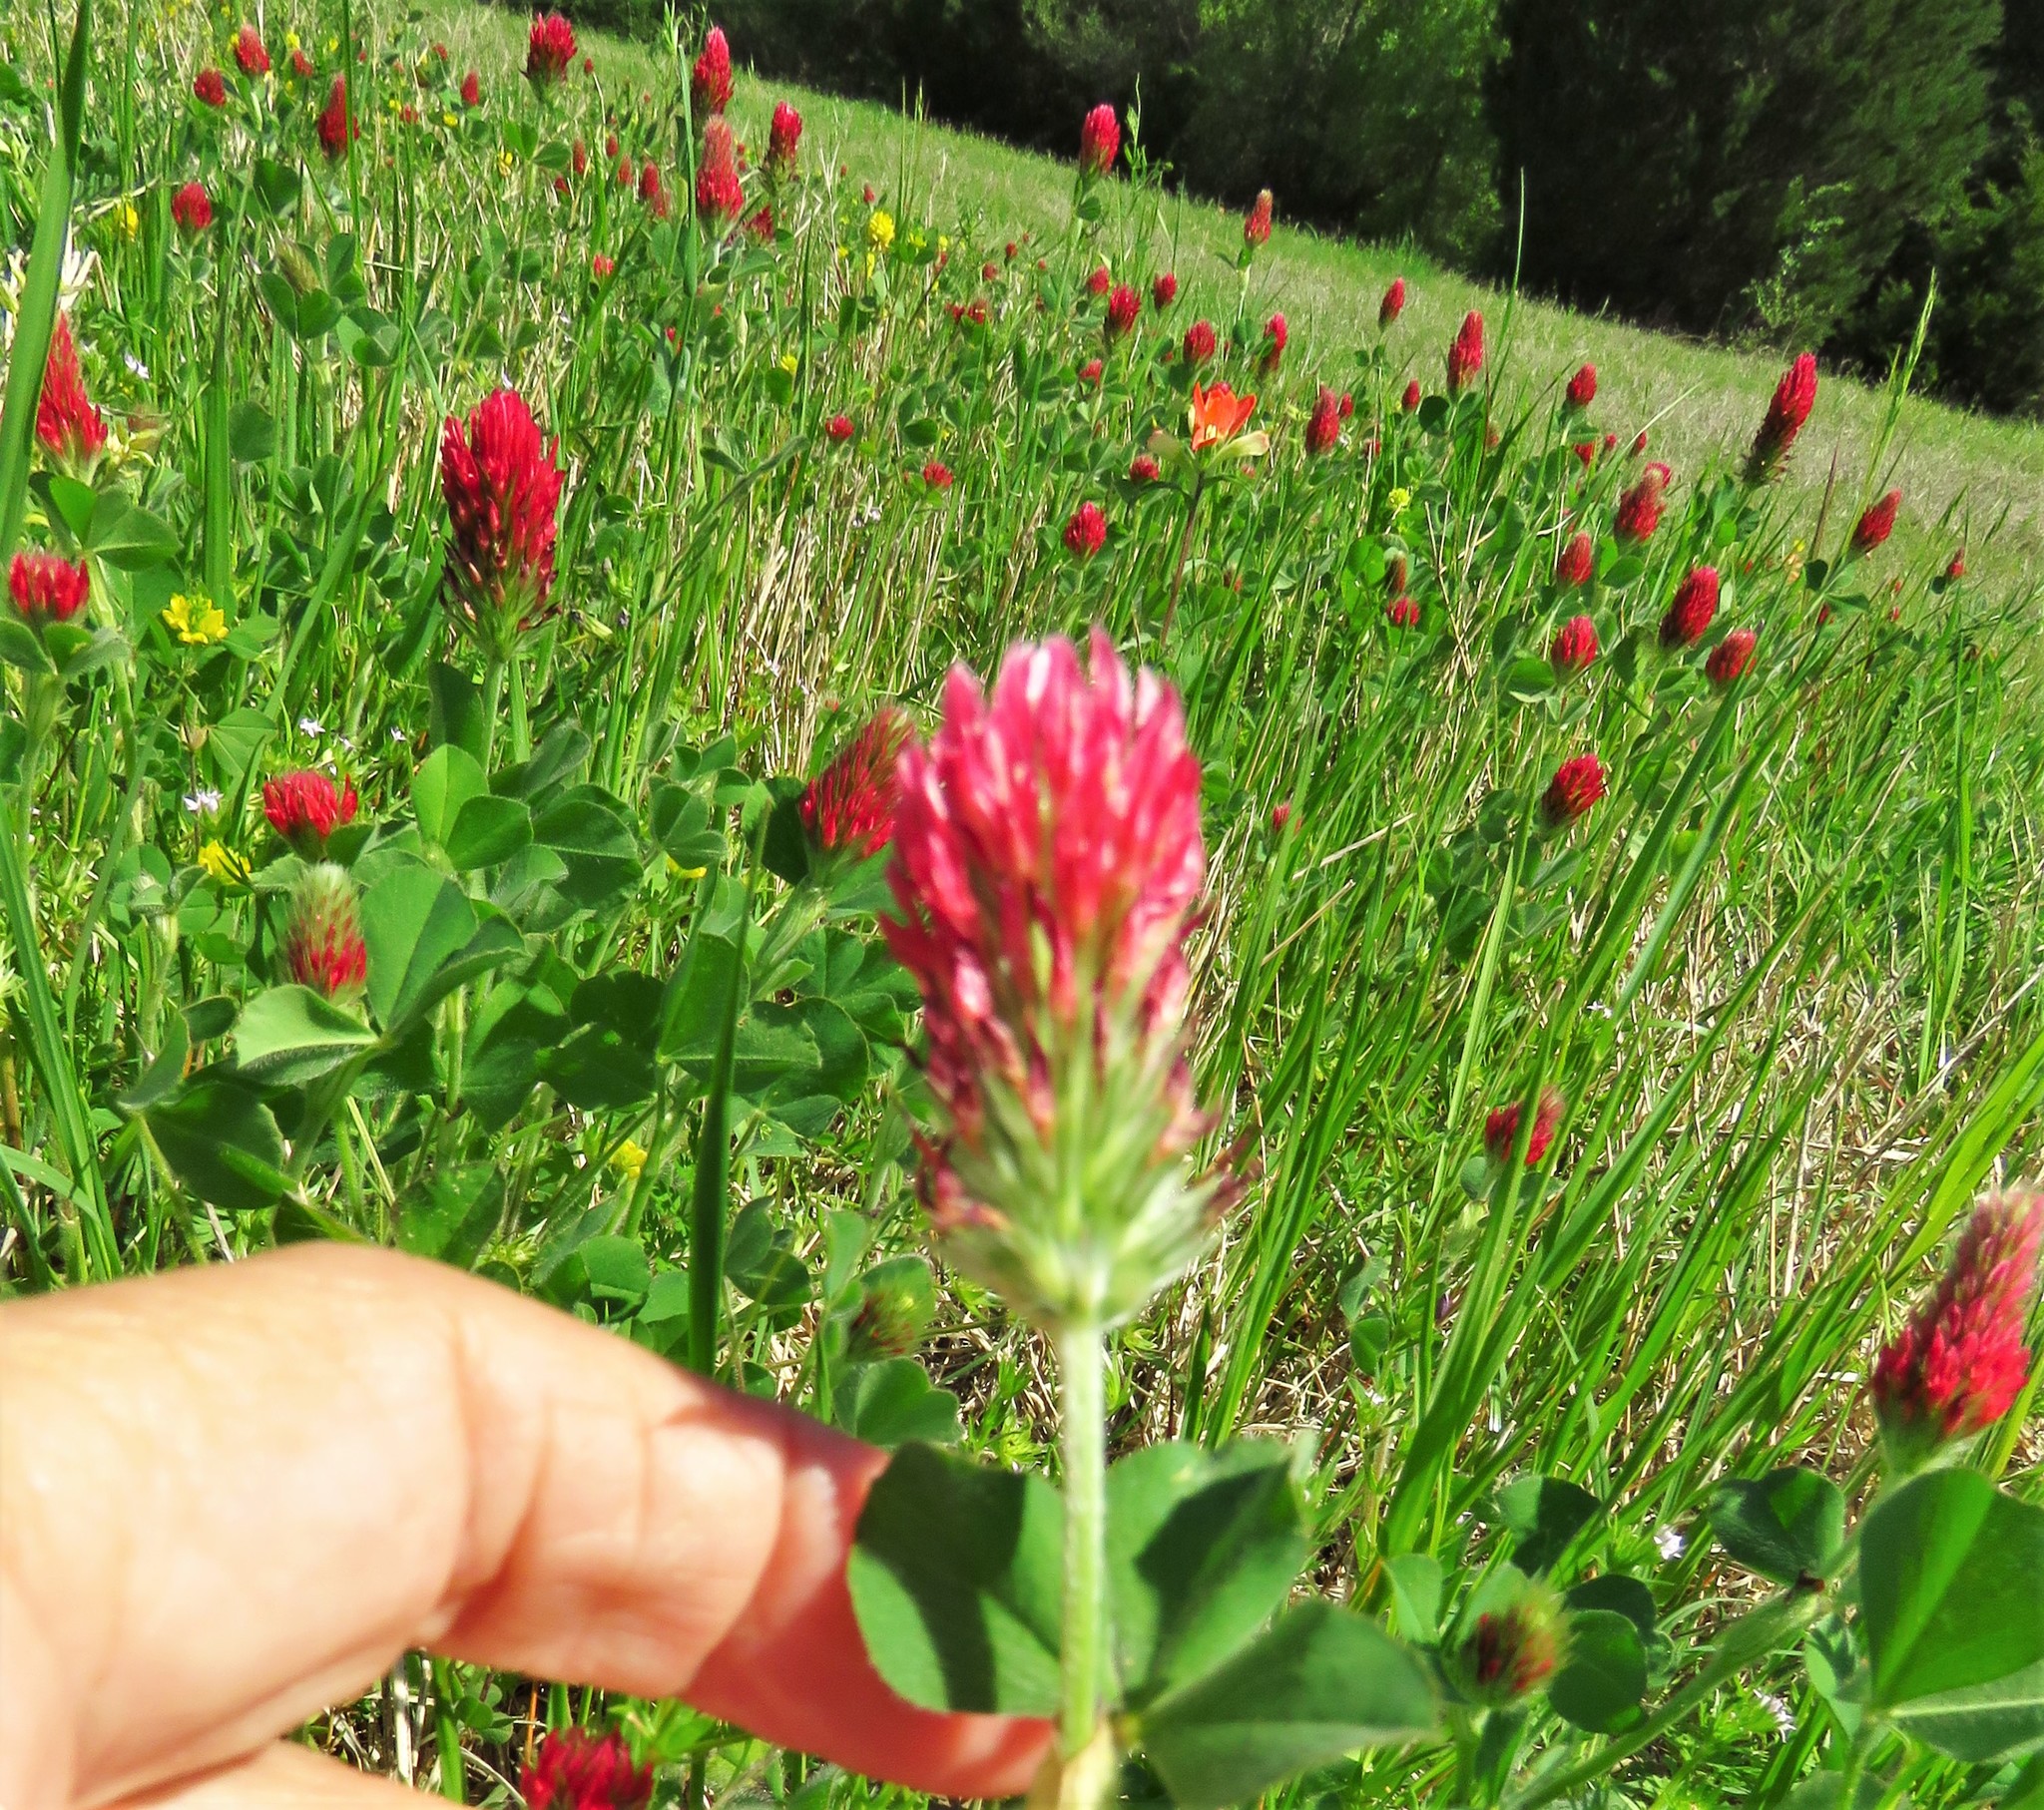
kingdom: Plantae
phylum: Tracheophyta
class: Magnoliopsida
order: Fabales
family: Fabaceae
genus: Trifolium
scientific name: Trifolium incarnatum
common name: Crimson clover
